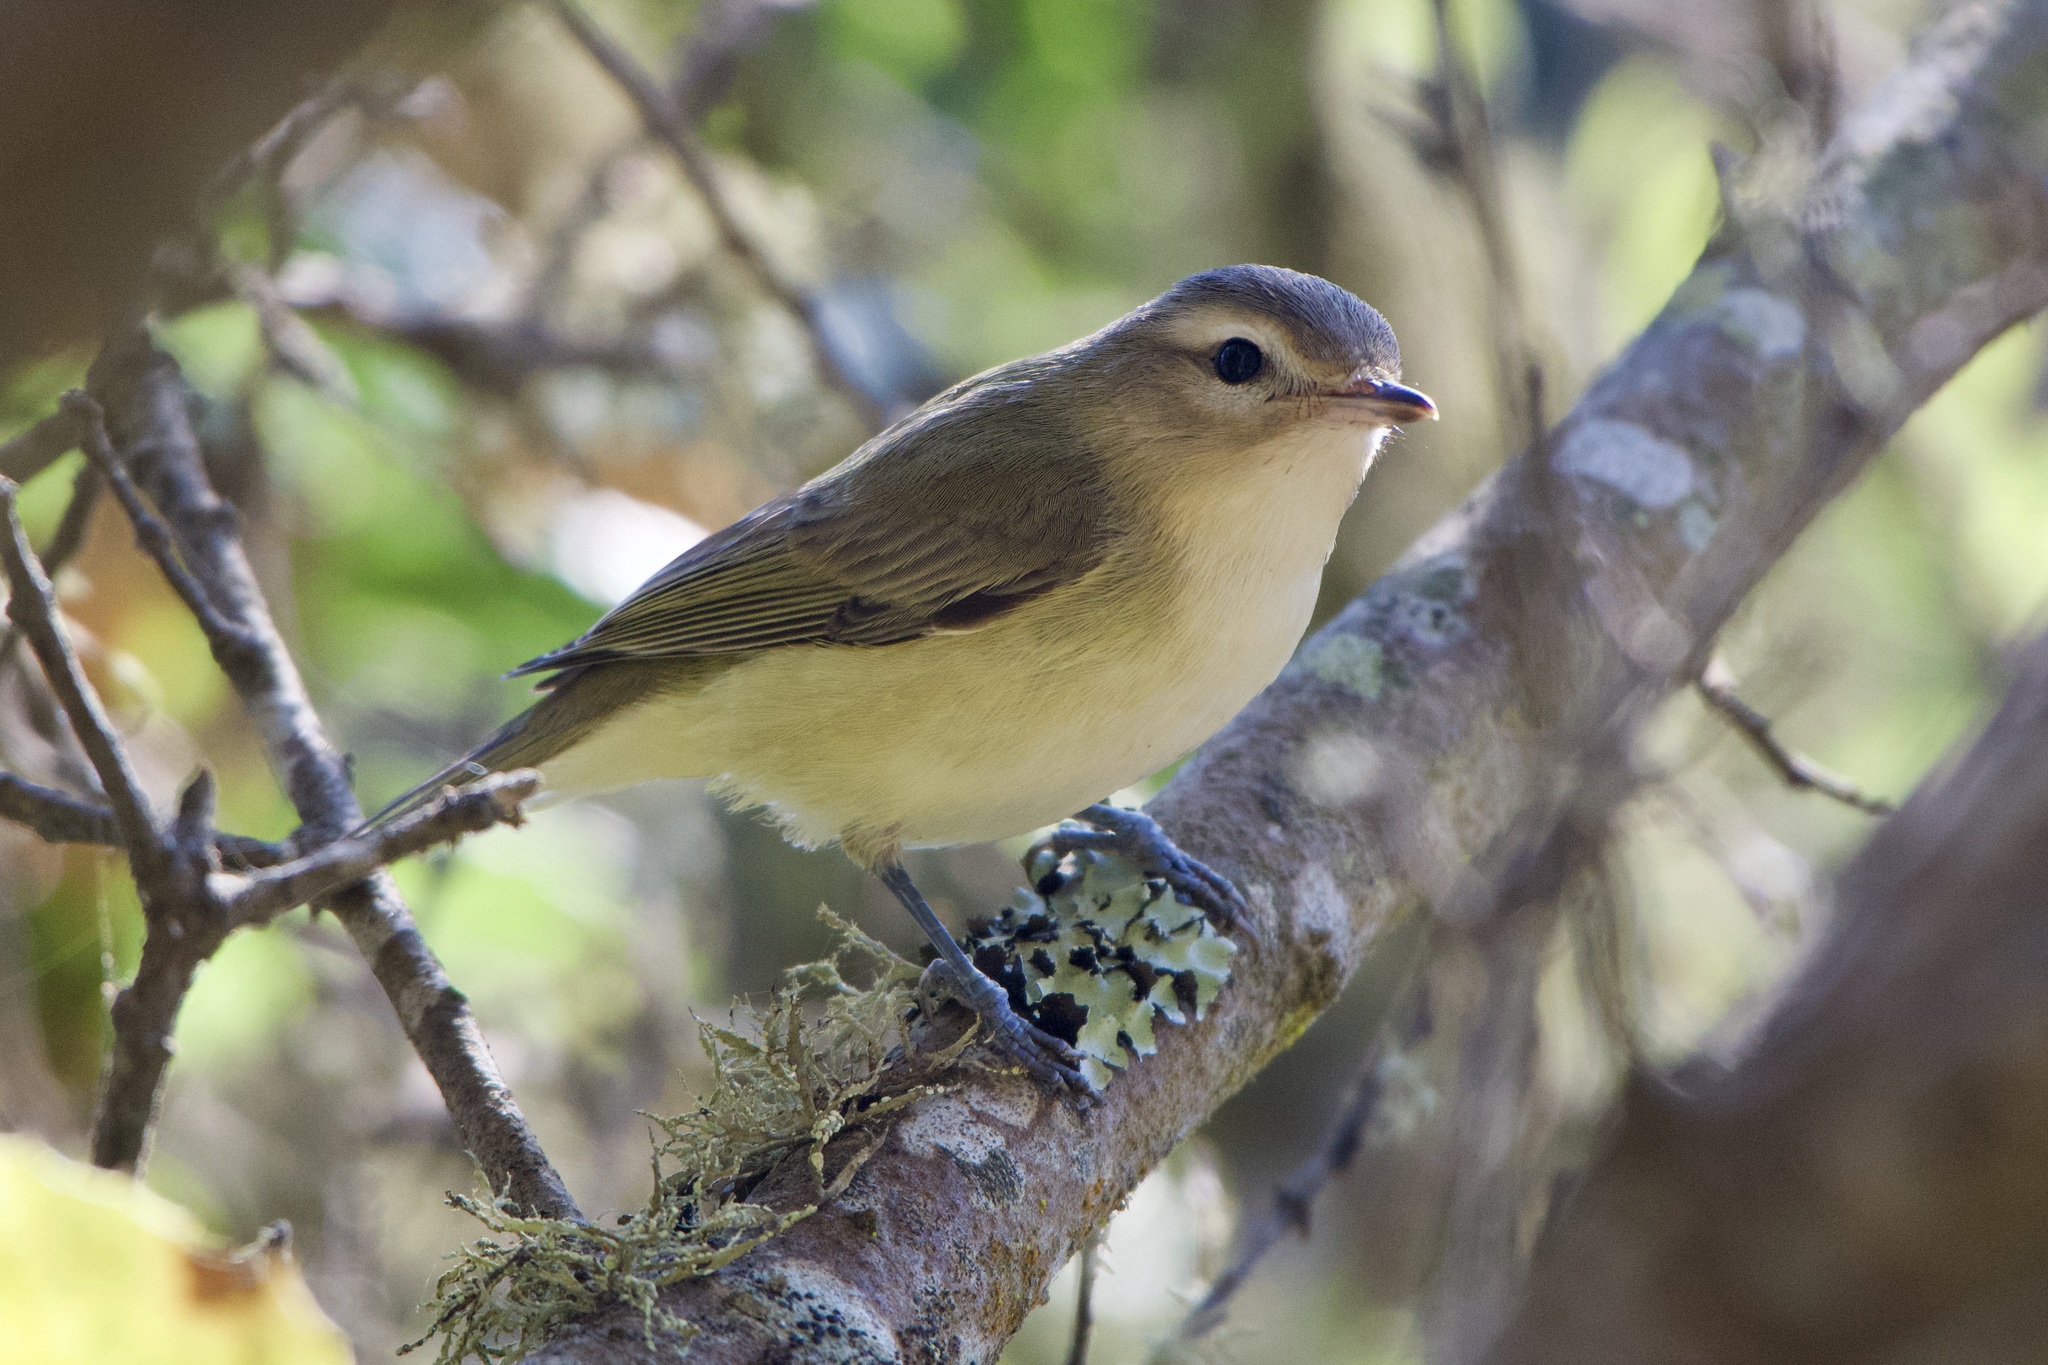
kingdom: Animalia
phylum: Chordata
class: Aves
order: Passeriformes
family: Vireonidae
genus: Vireo
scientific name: Vireo gilvus
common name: Warbling vireo
